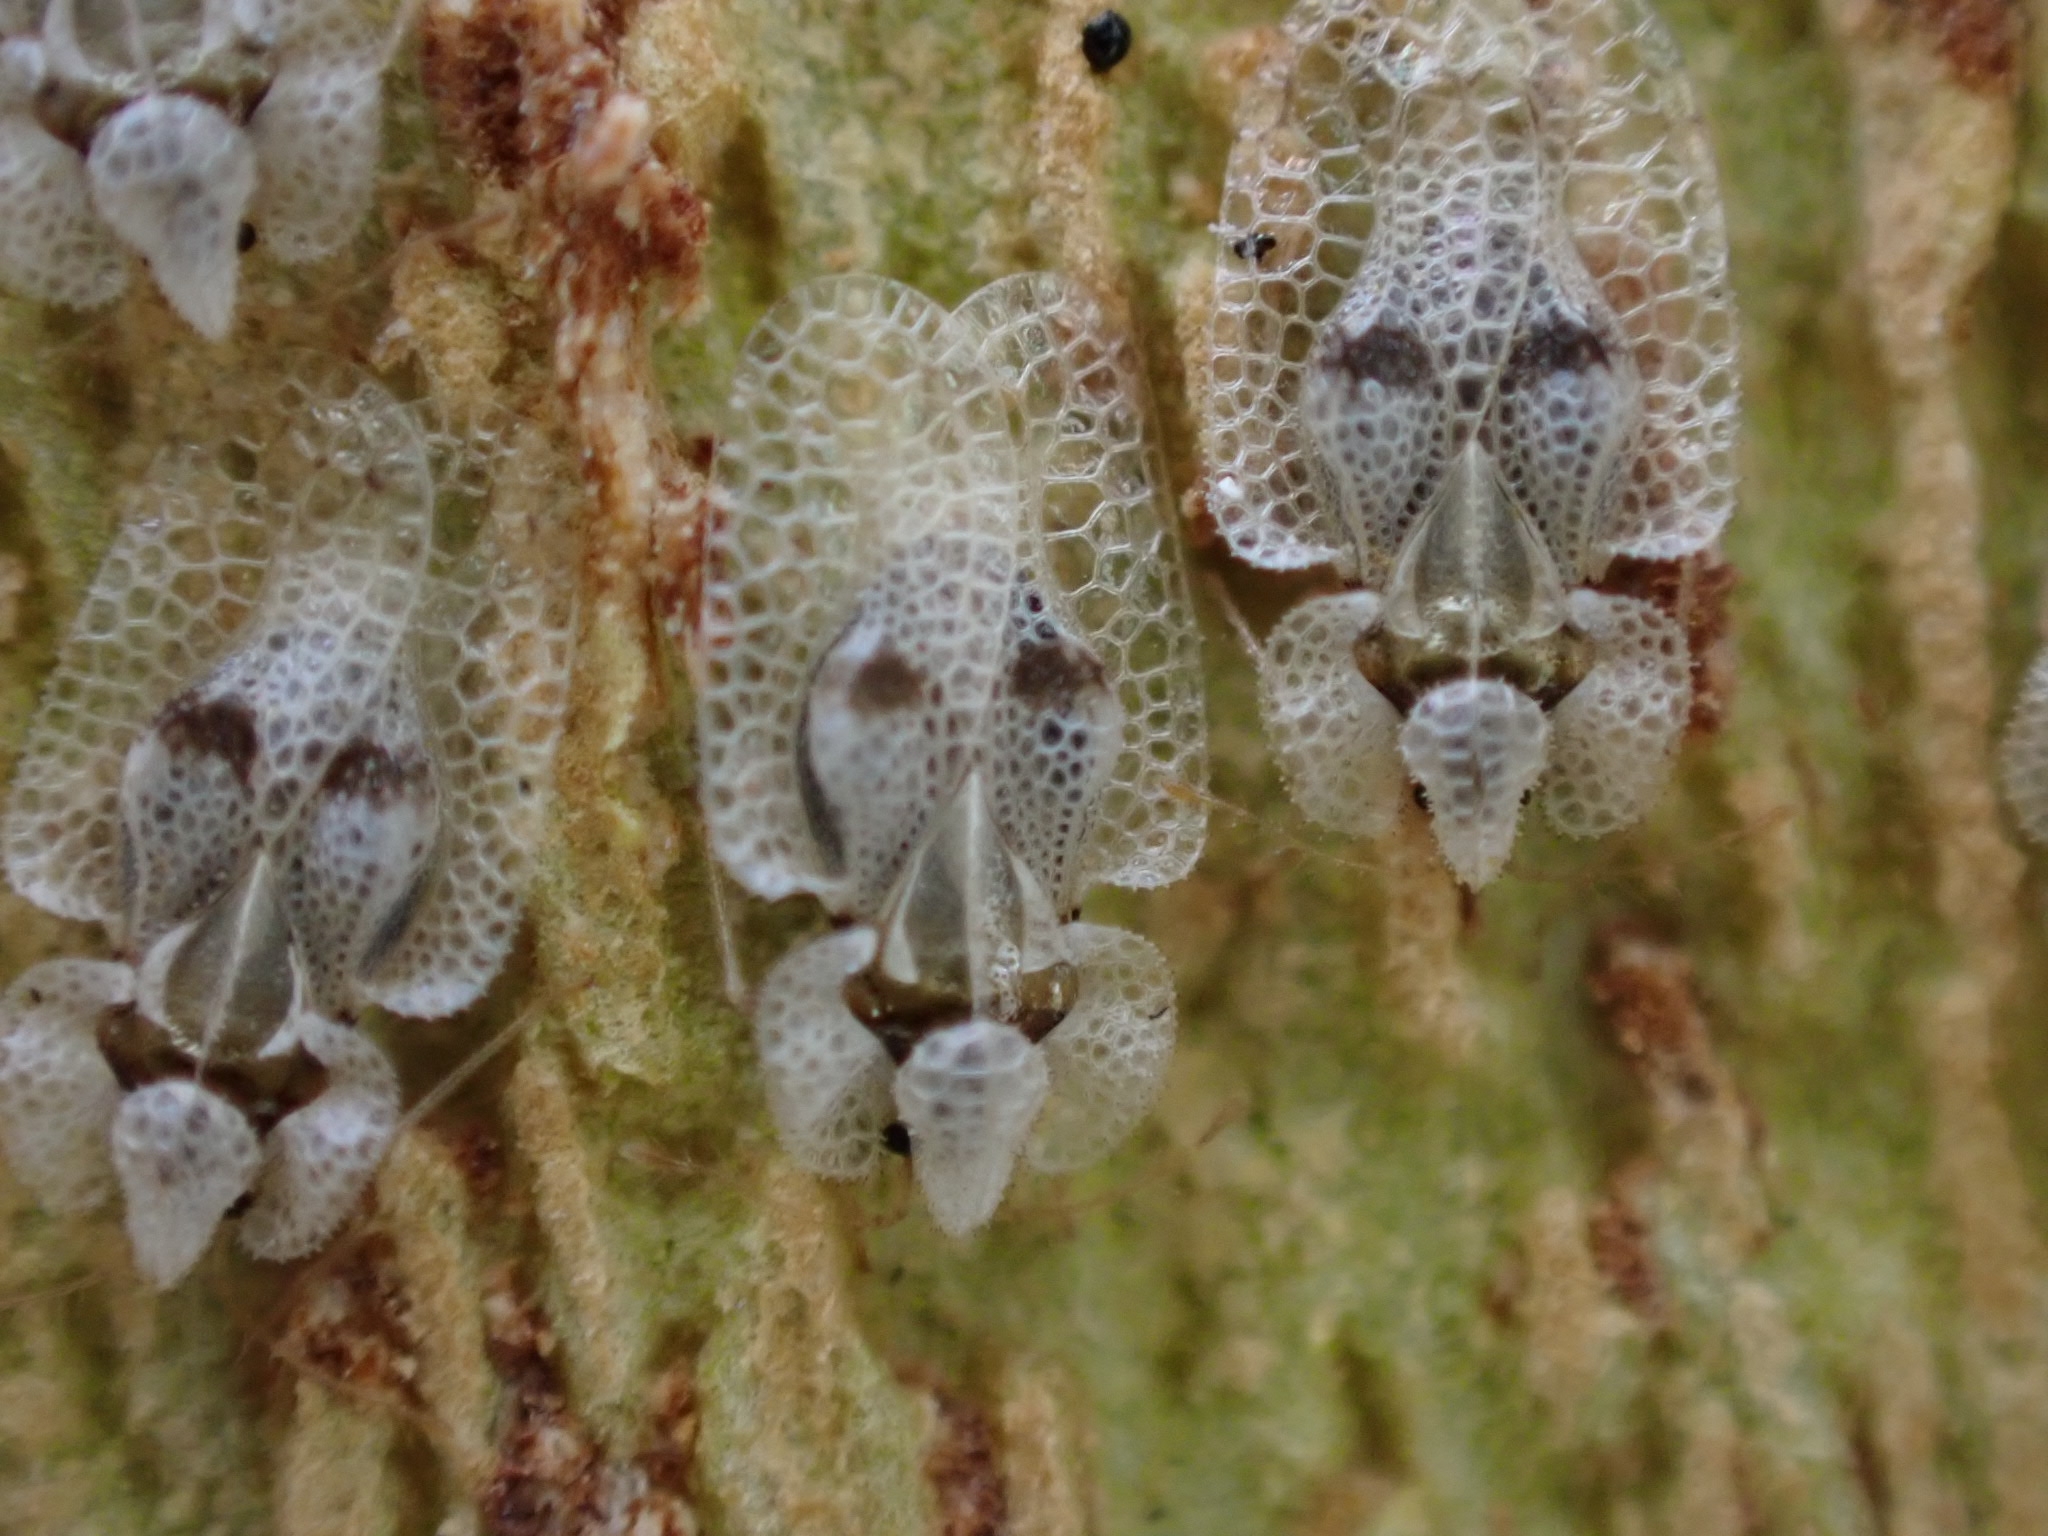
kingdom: Animalia
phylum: Arthropoda
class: Insecta
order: Hemiptera
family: Tingidae
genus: Corythucha
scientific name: Corythucha ciliata
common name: Sycamore lace bug
